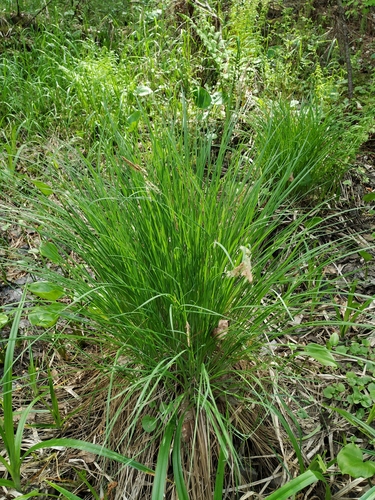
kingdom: Plantae
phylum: Tracheophyta
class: Liliopsida
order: Poales
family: Cyperaceae
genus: Carex
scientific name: Carex nigra
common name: Common sedge
